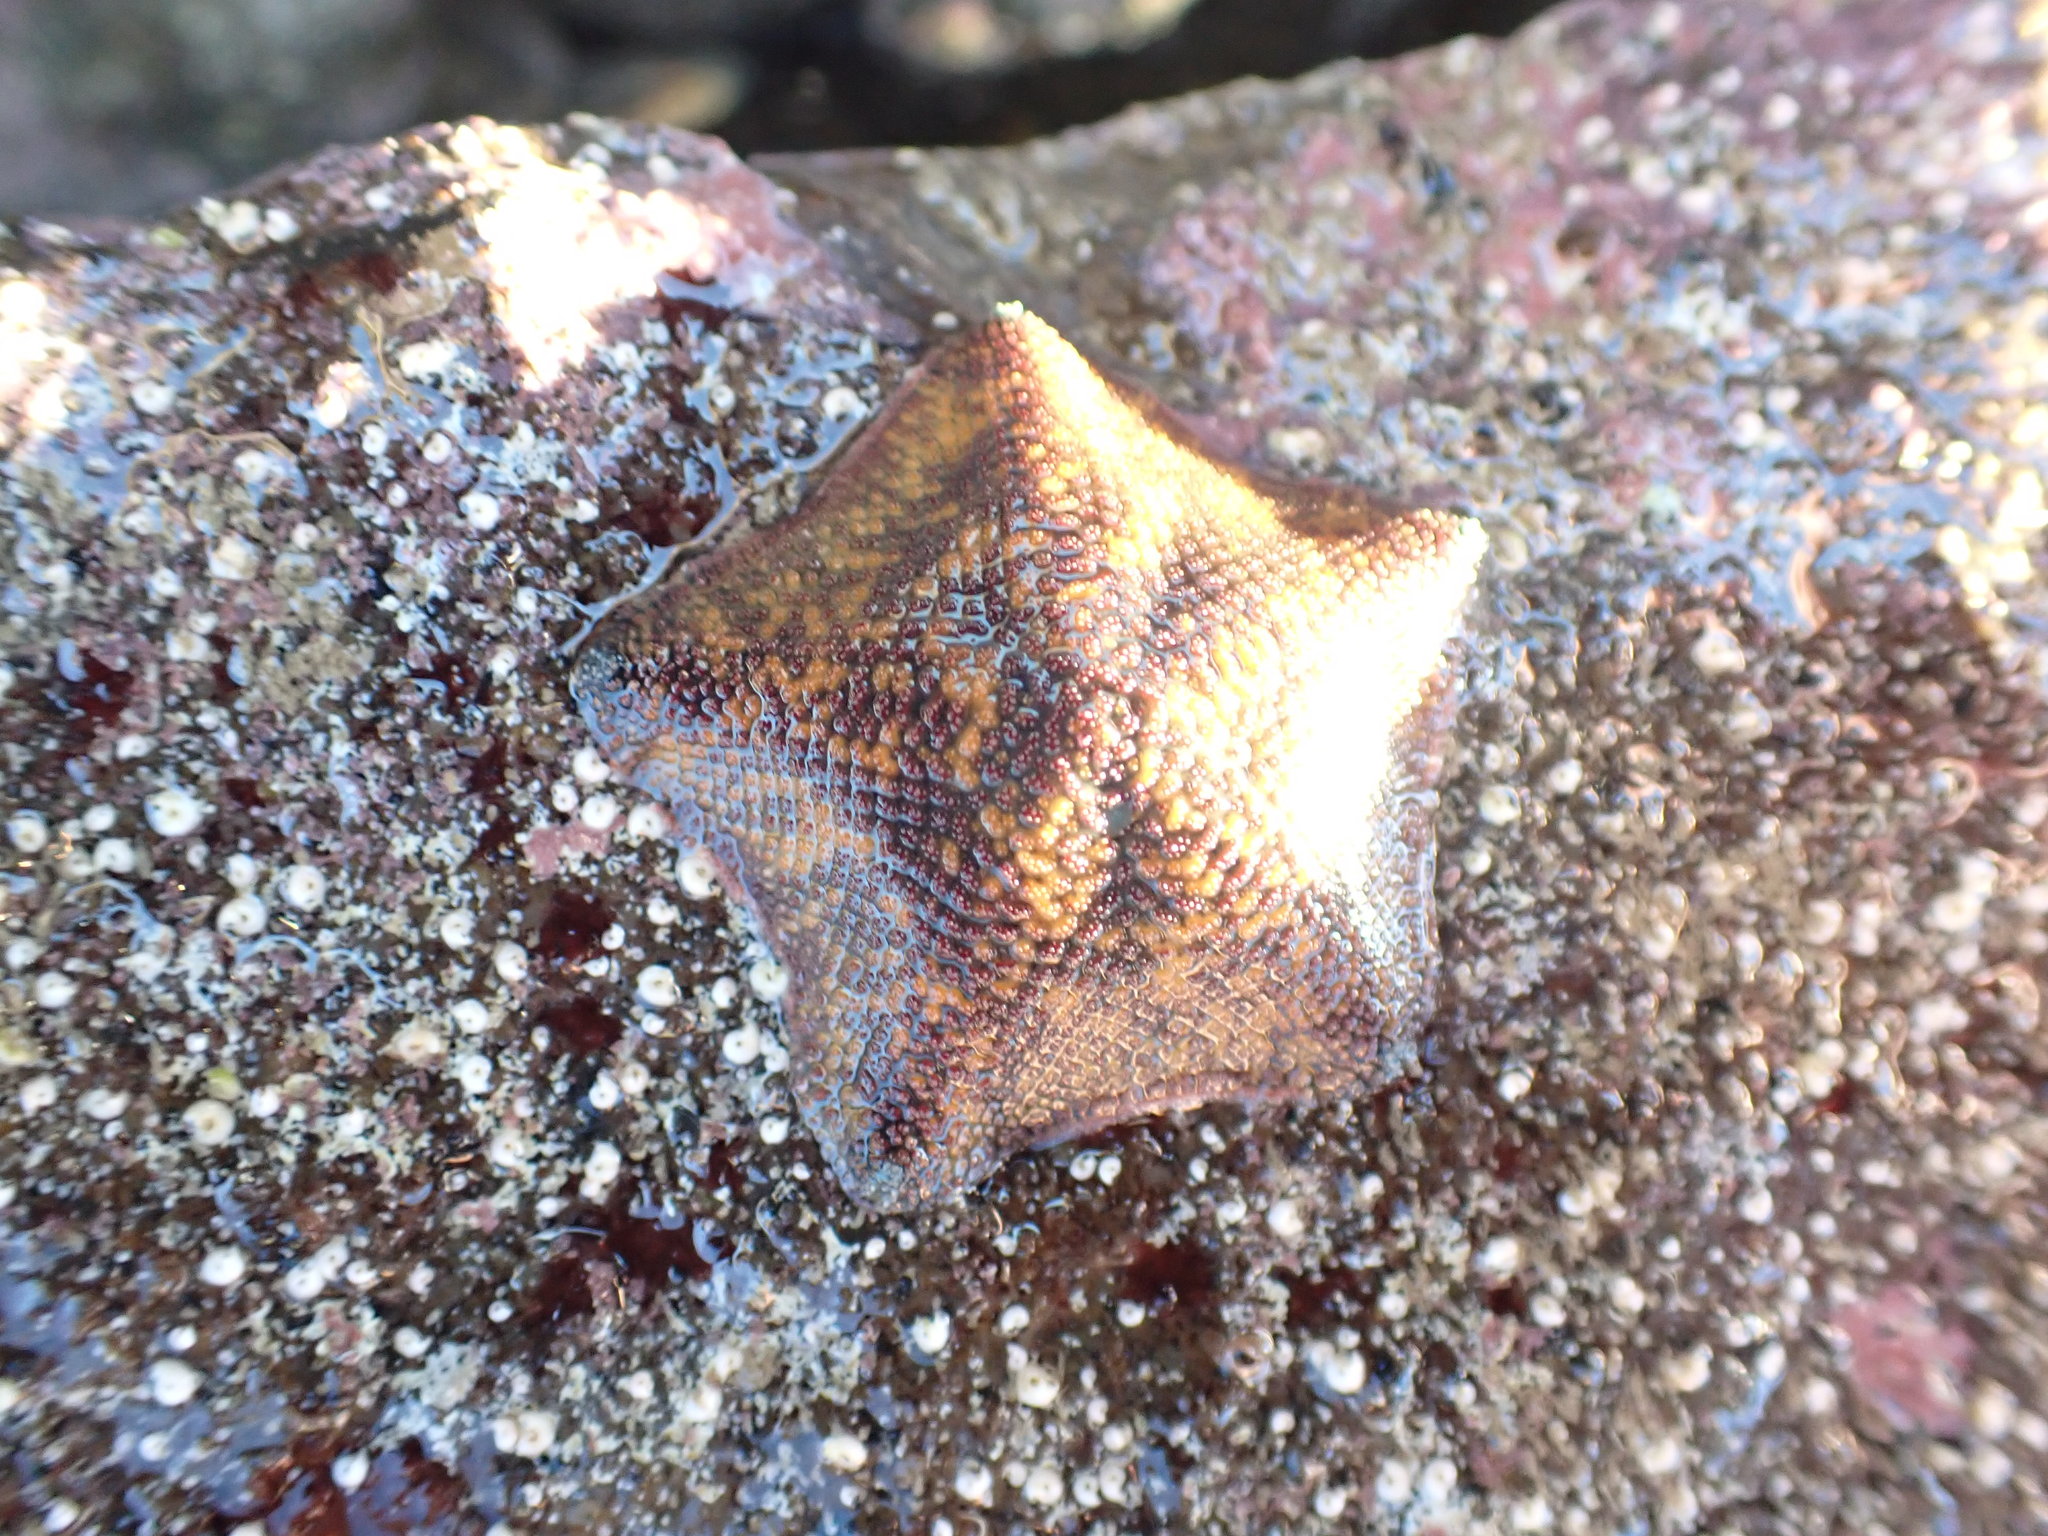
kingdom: Animalia
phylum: Echinodermata
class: Asteroidea
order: Valvatida
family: Asterinidae
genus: Patiriella
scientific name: Patiriella regularis
